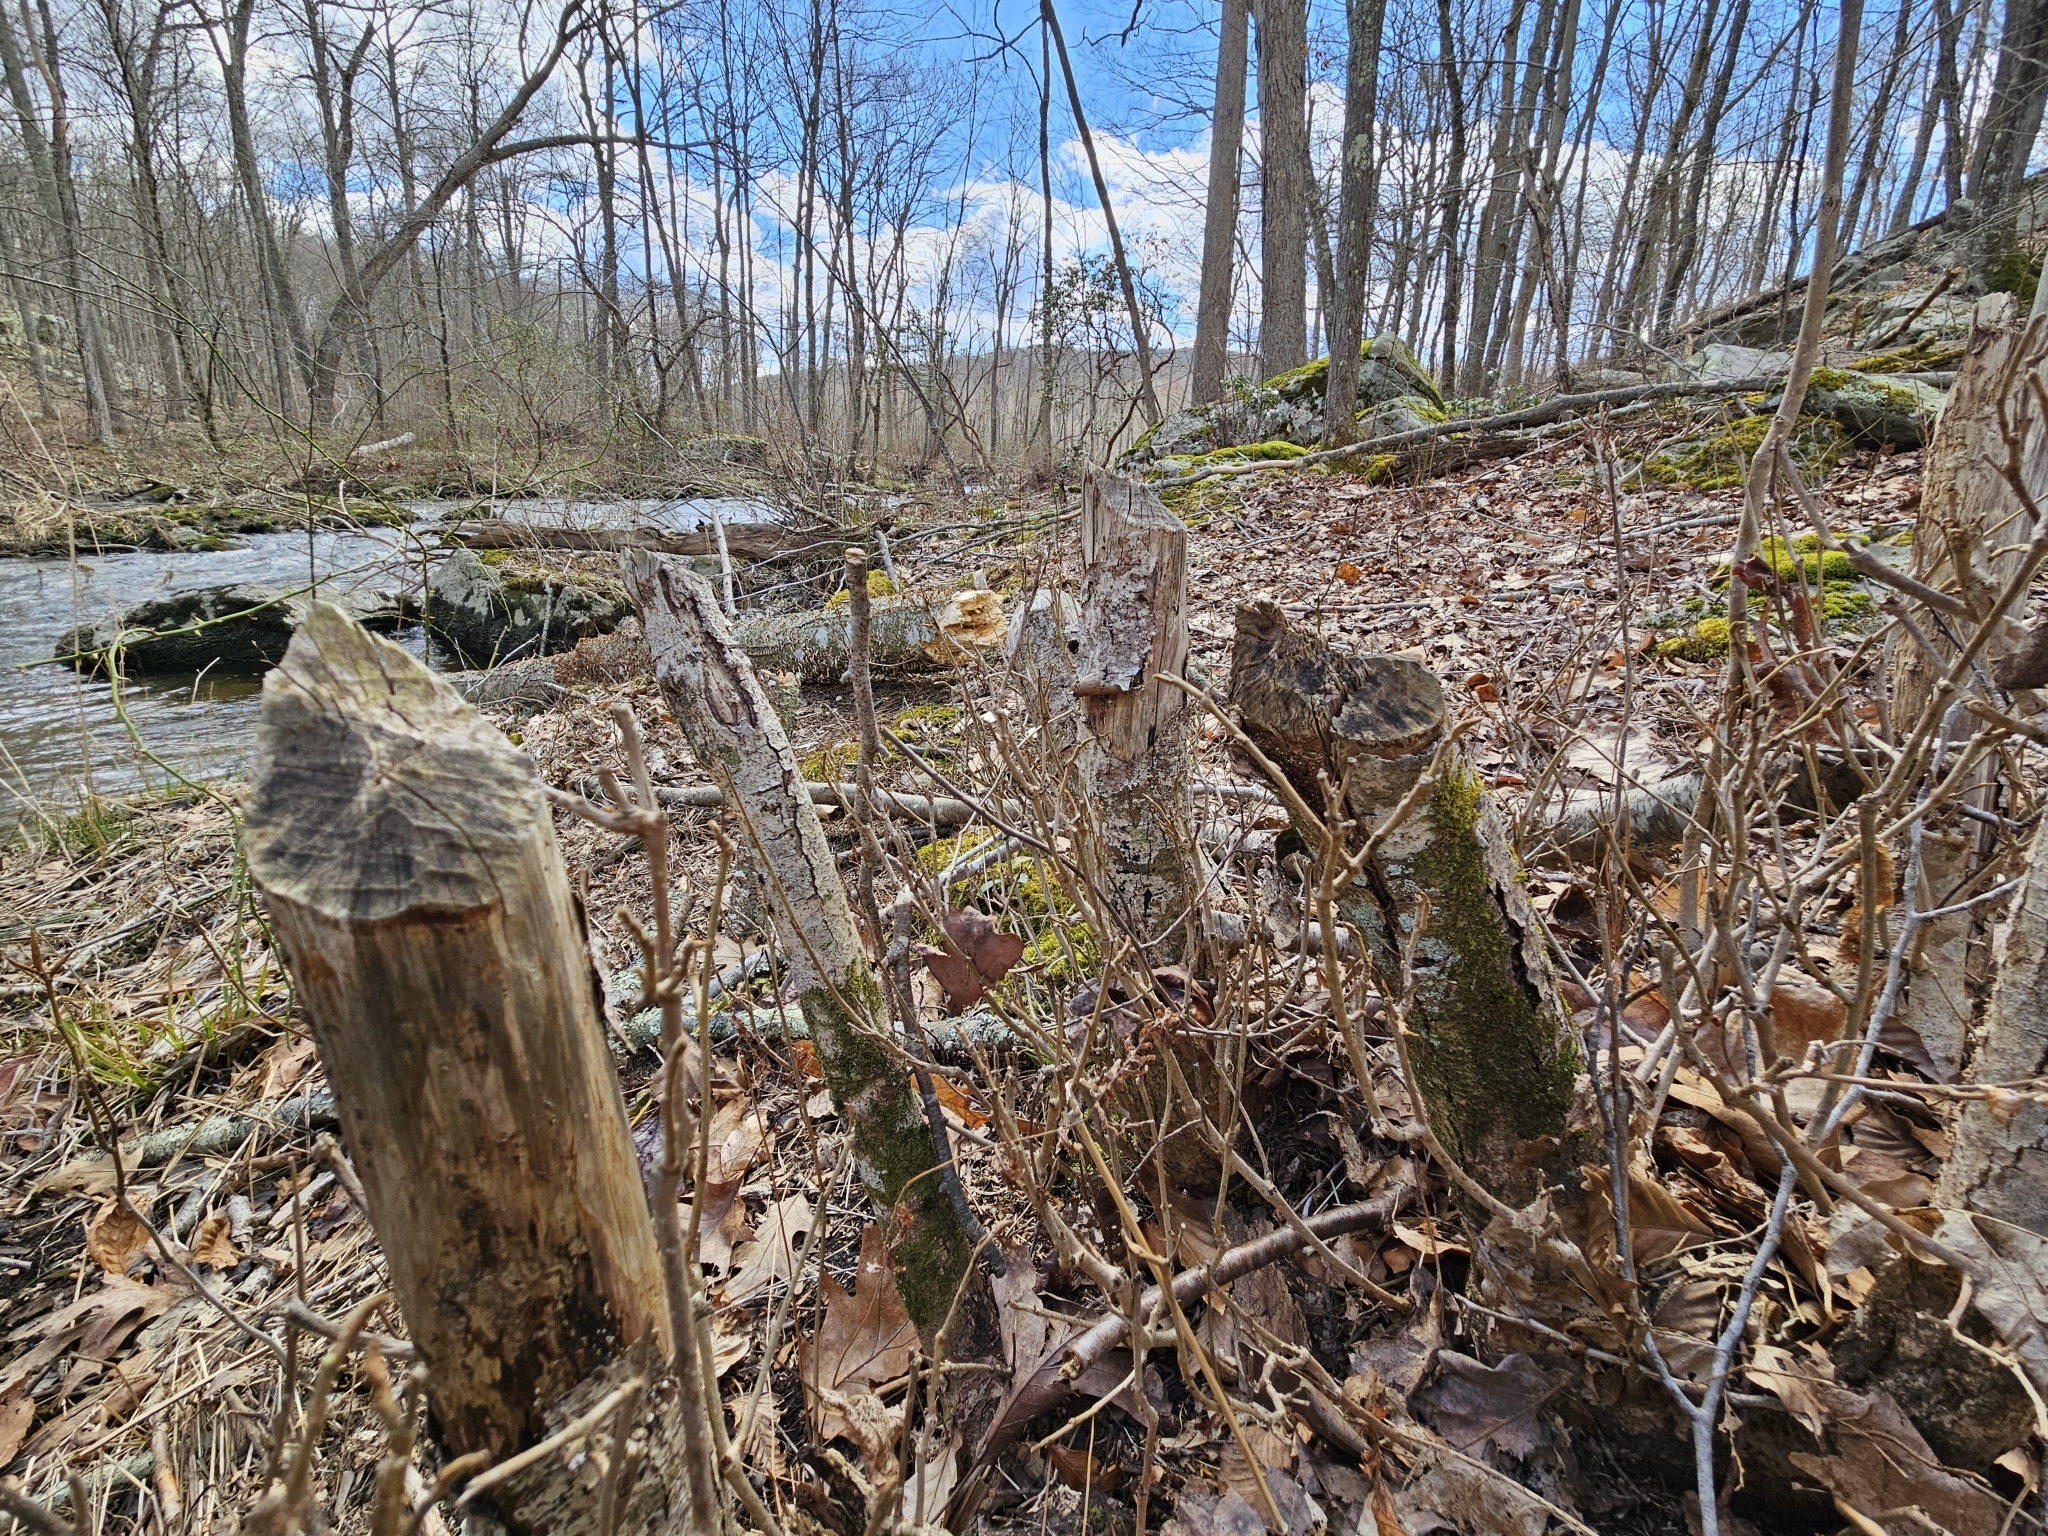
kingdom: Animalia
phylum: Chordata
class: Mammalia
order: Rodentia
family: Castoridae
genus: Castor
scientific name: Castor canadensis
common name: American beaver
